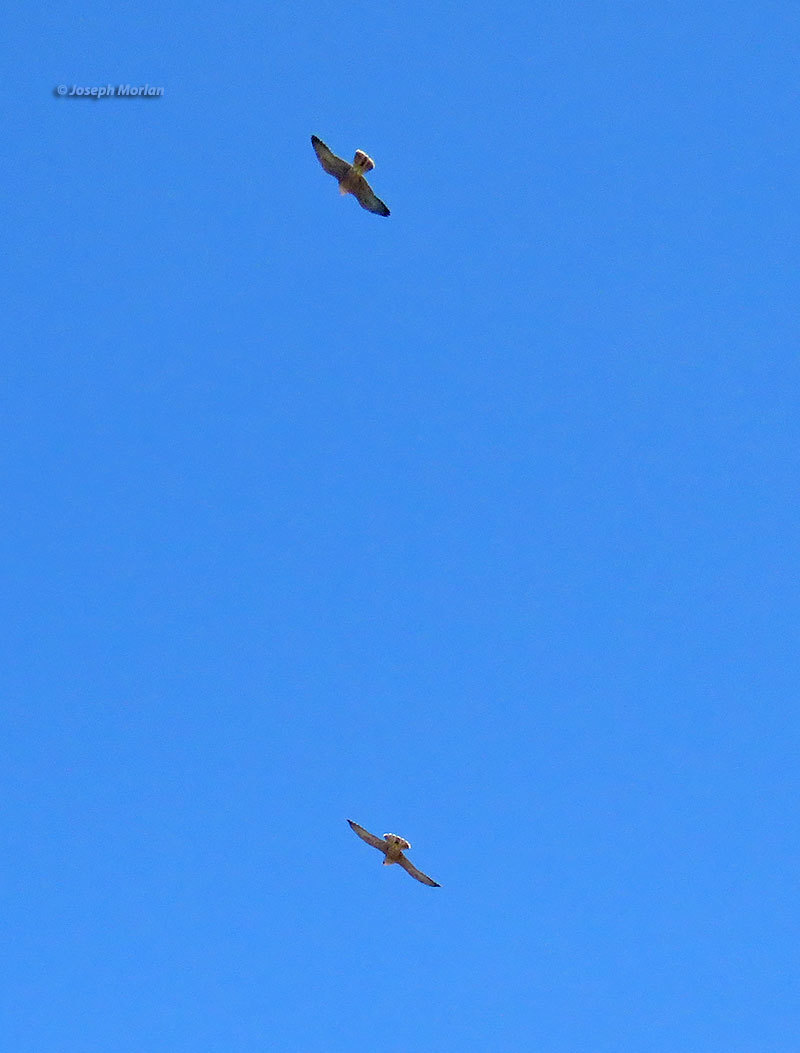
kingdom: Animalia
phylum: Chordata
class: Aves
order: Falconiformes
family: Falconidae
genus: Falco
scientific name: Falco peregrinus
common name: Peregrine falcon
